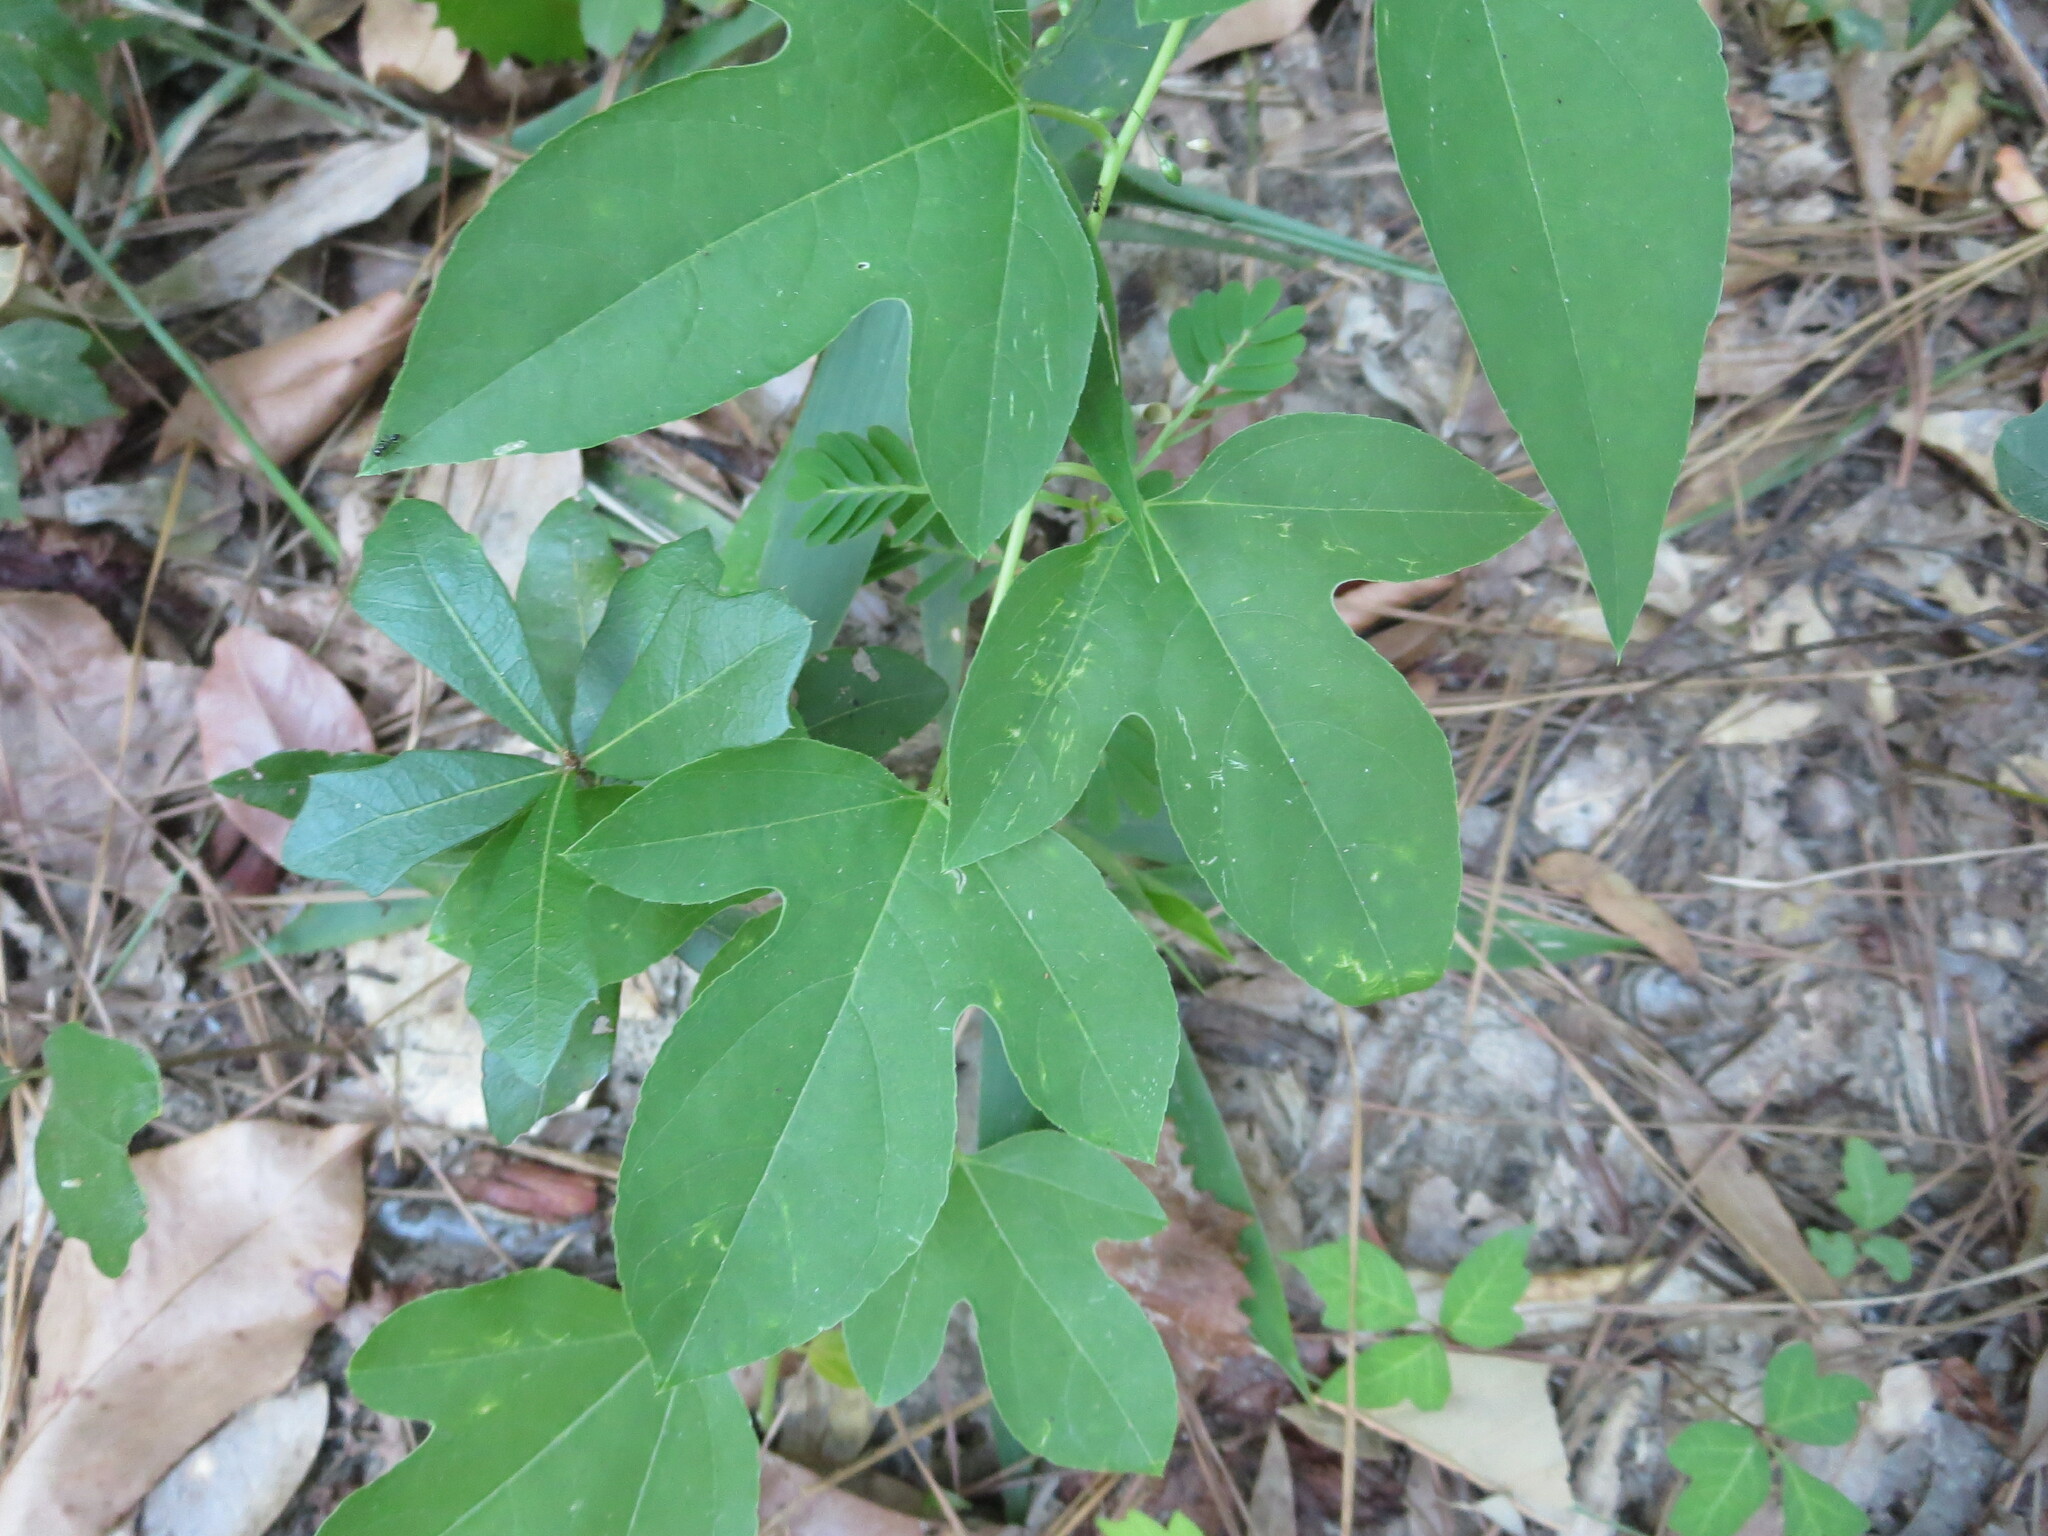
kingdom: Plantae
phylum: Tracheophyta
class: Magnoliopsida
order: Malpighiales
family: Passifloraceae
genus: Passiflora
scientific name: Passiflora incarnata
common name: Apricot-vine
